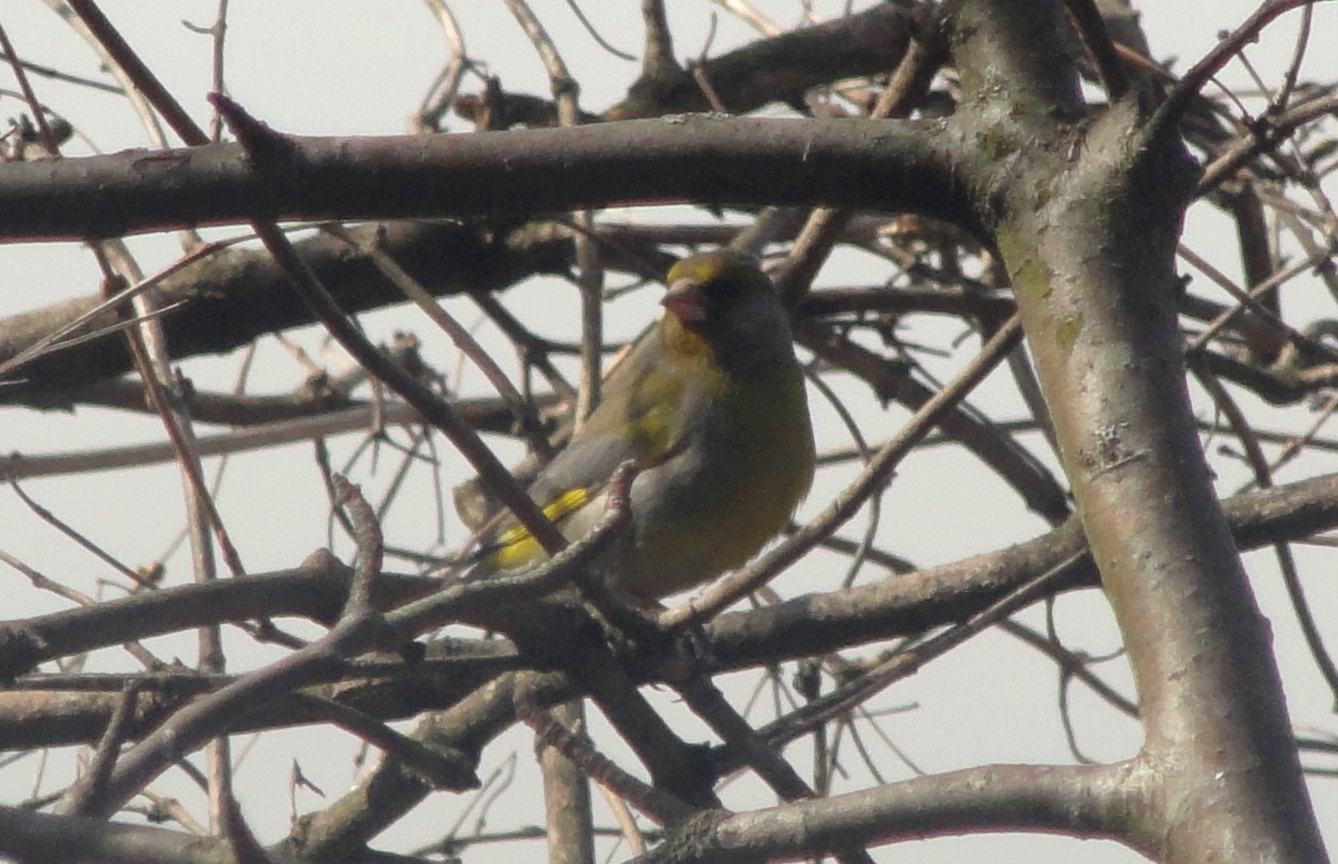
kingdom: Plantae
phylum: Tracheophyta
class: Liliopsida
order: Poales
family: Poaceae
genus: Chloris
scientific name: Chloris chloris
